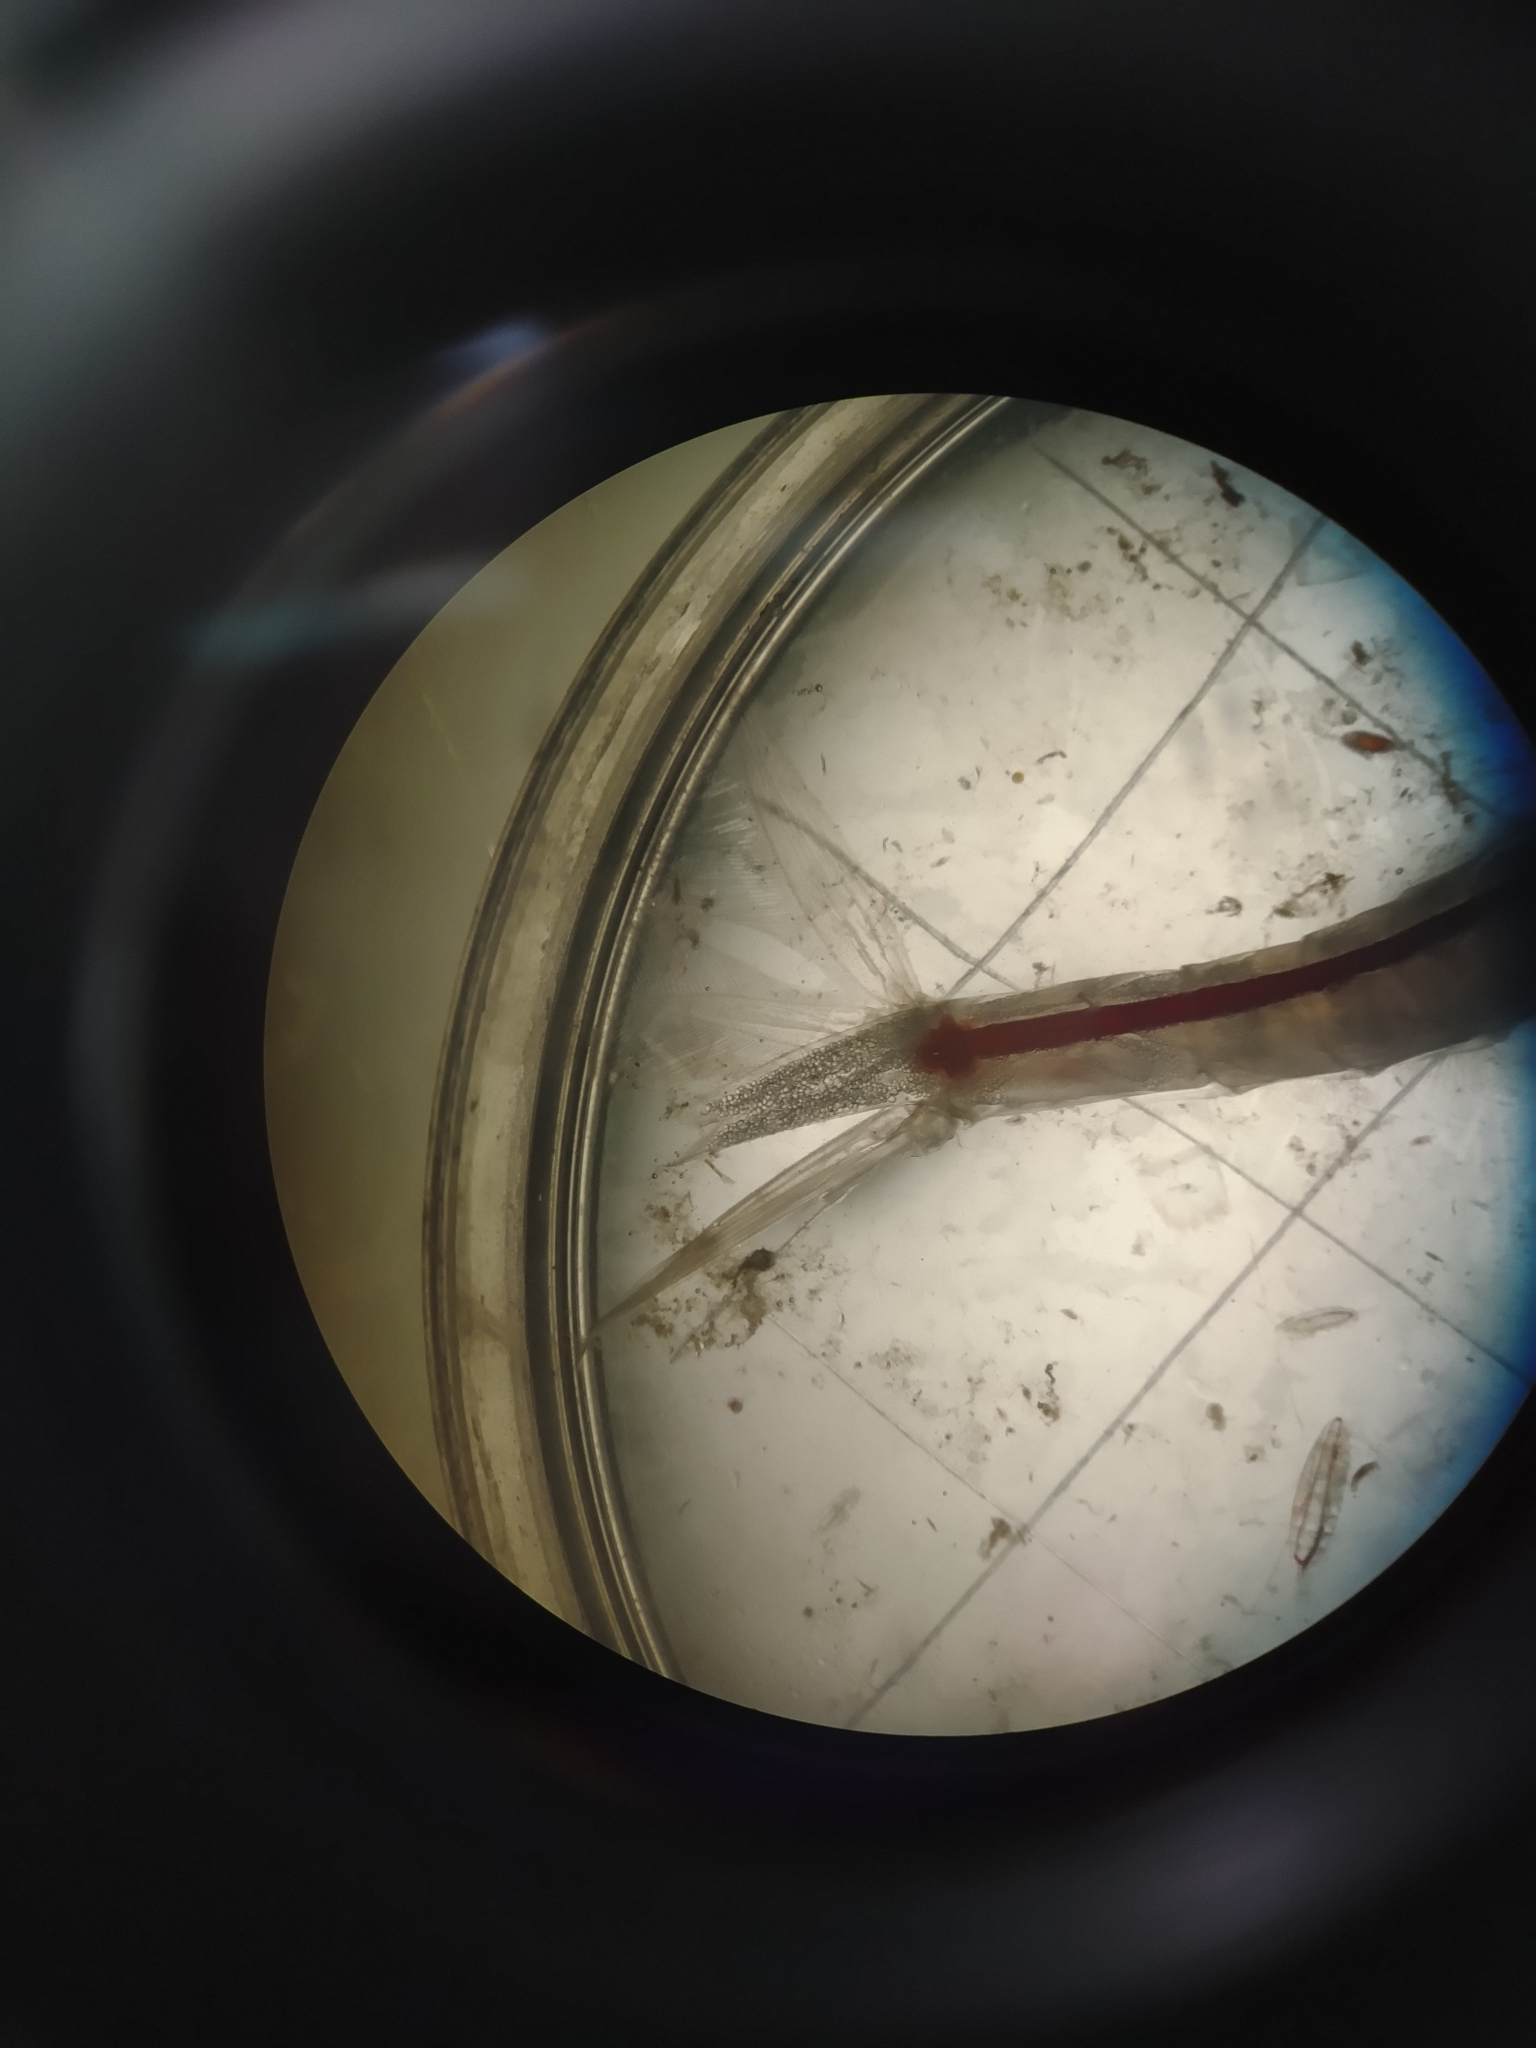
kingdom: Animalia
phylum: Arthropoda
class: Malacostraca
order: Mysida
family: Mysidae
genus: Boreomysis
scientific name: Boreomysis nobilis
